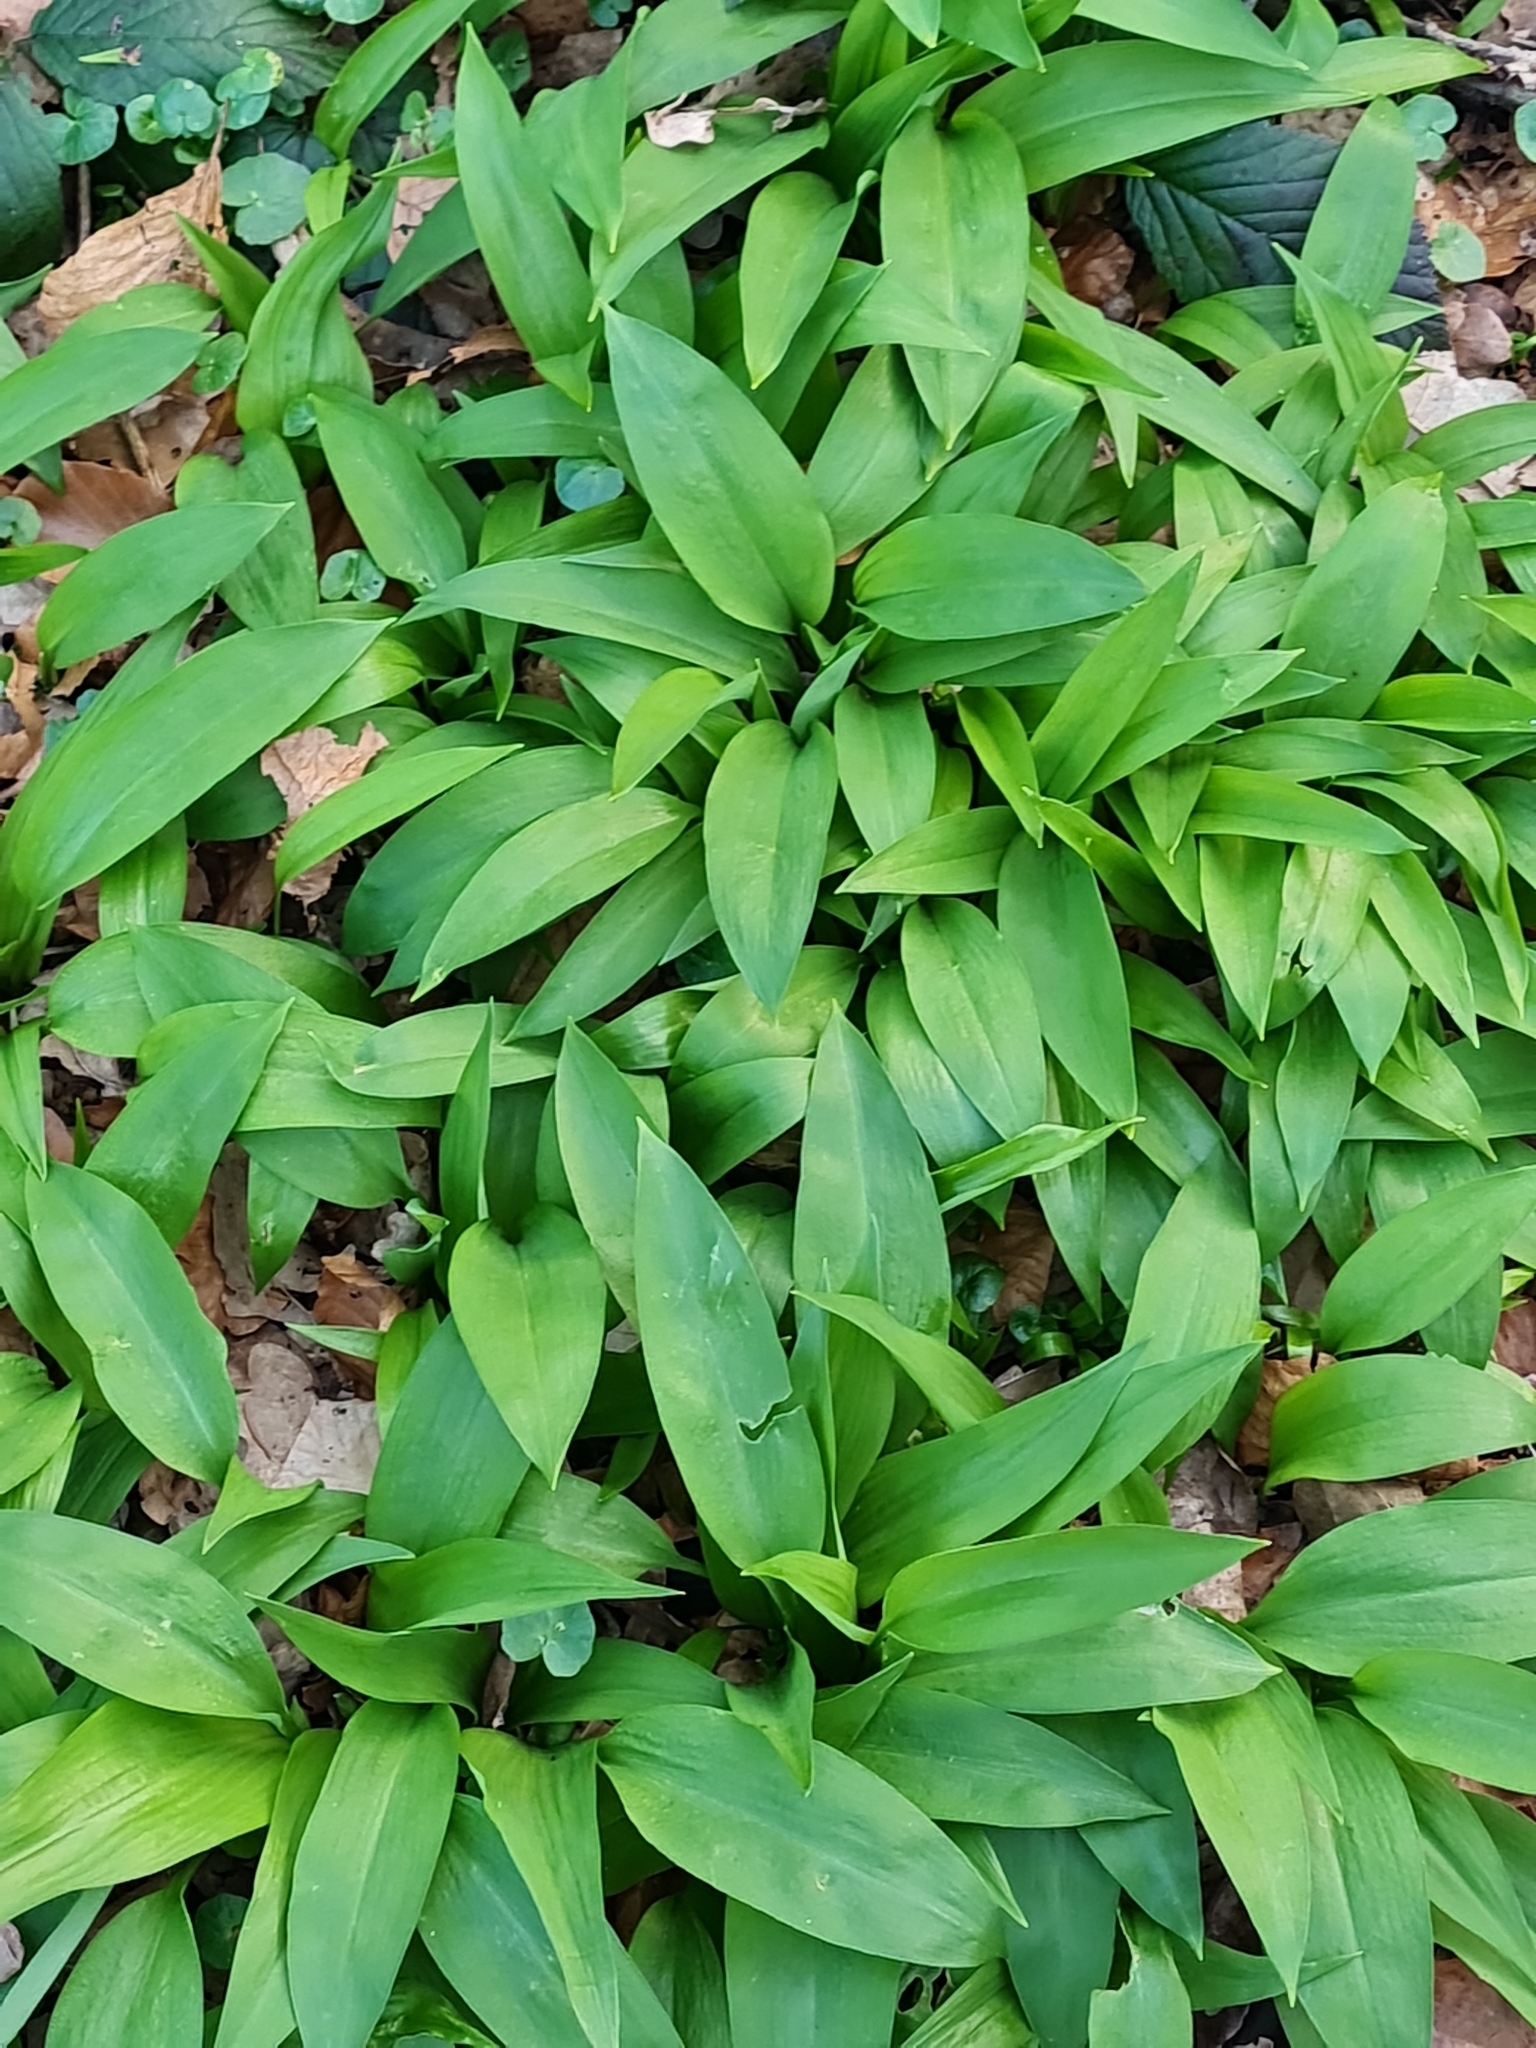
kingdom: Plantae
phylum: Tracheophyta
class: Liliopsida
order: Asparagales
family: Amaryllidaceae
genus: Allium
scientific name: Allium ursinum
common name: Ramsons
